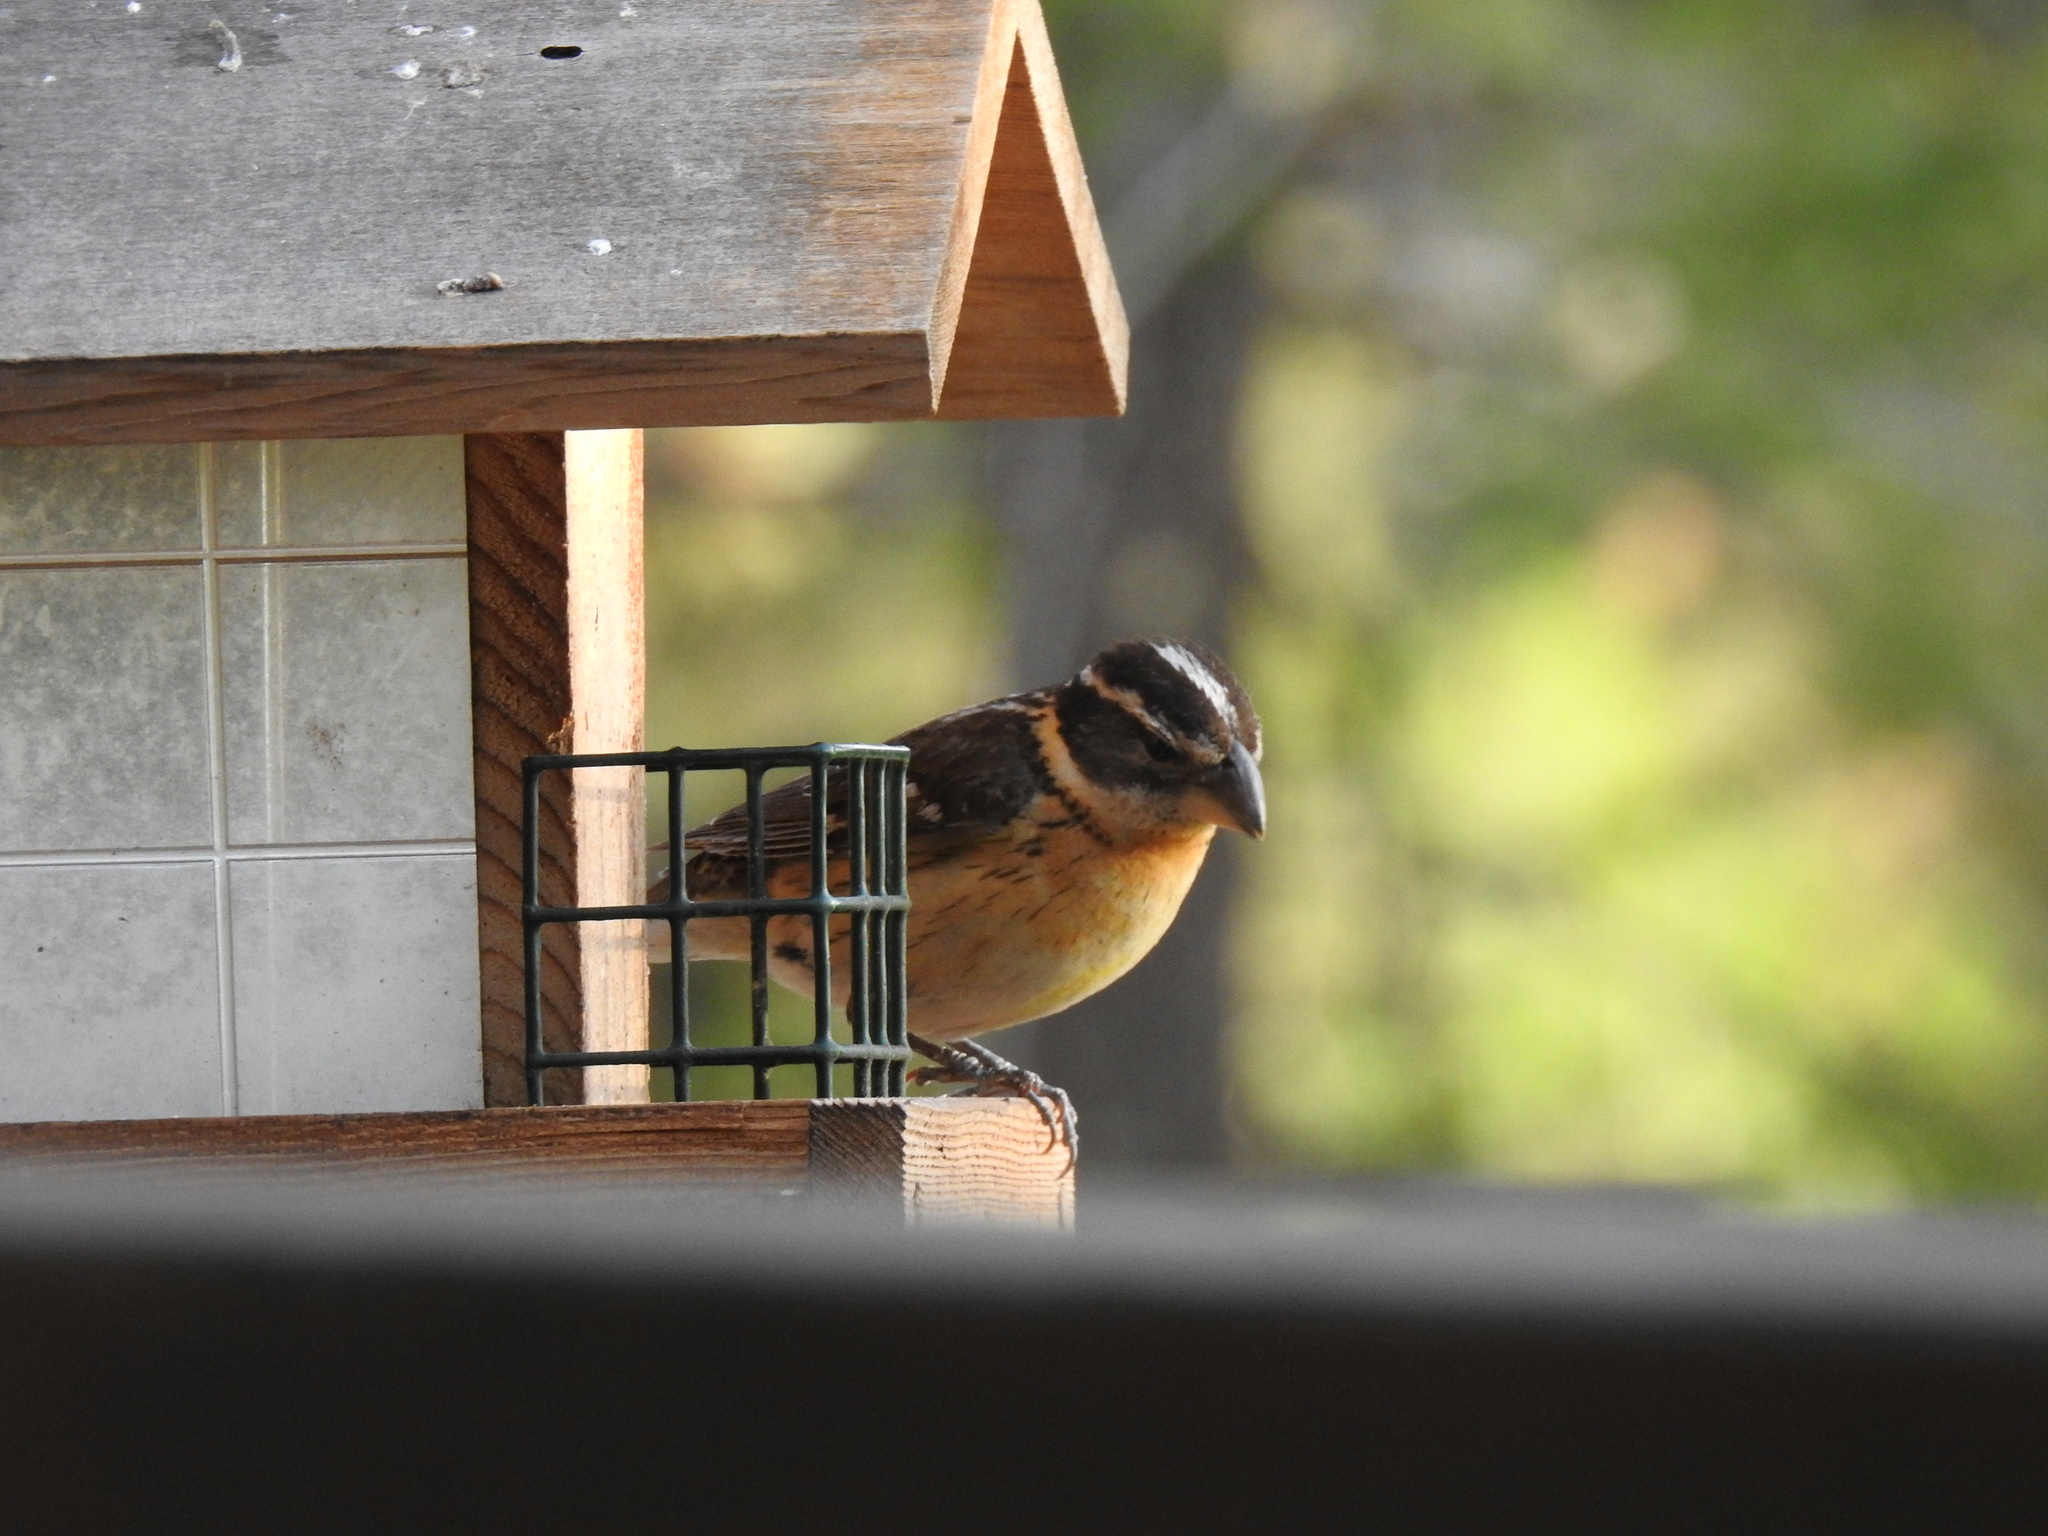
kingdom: Animalia
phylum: Chordata
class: Aves
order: Passeriformes
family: Cardinalidae
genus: Pheucticus
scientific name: Pheucticus melanocephalus
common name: Black-headed grosbeak
